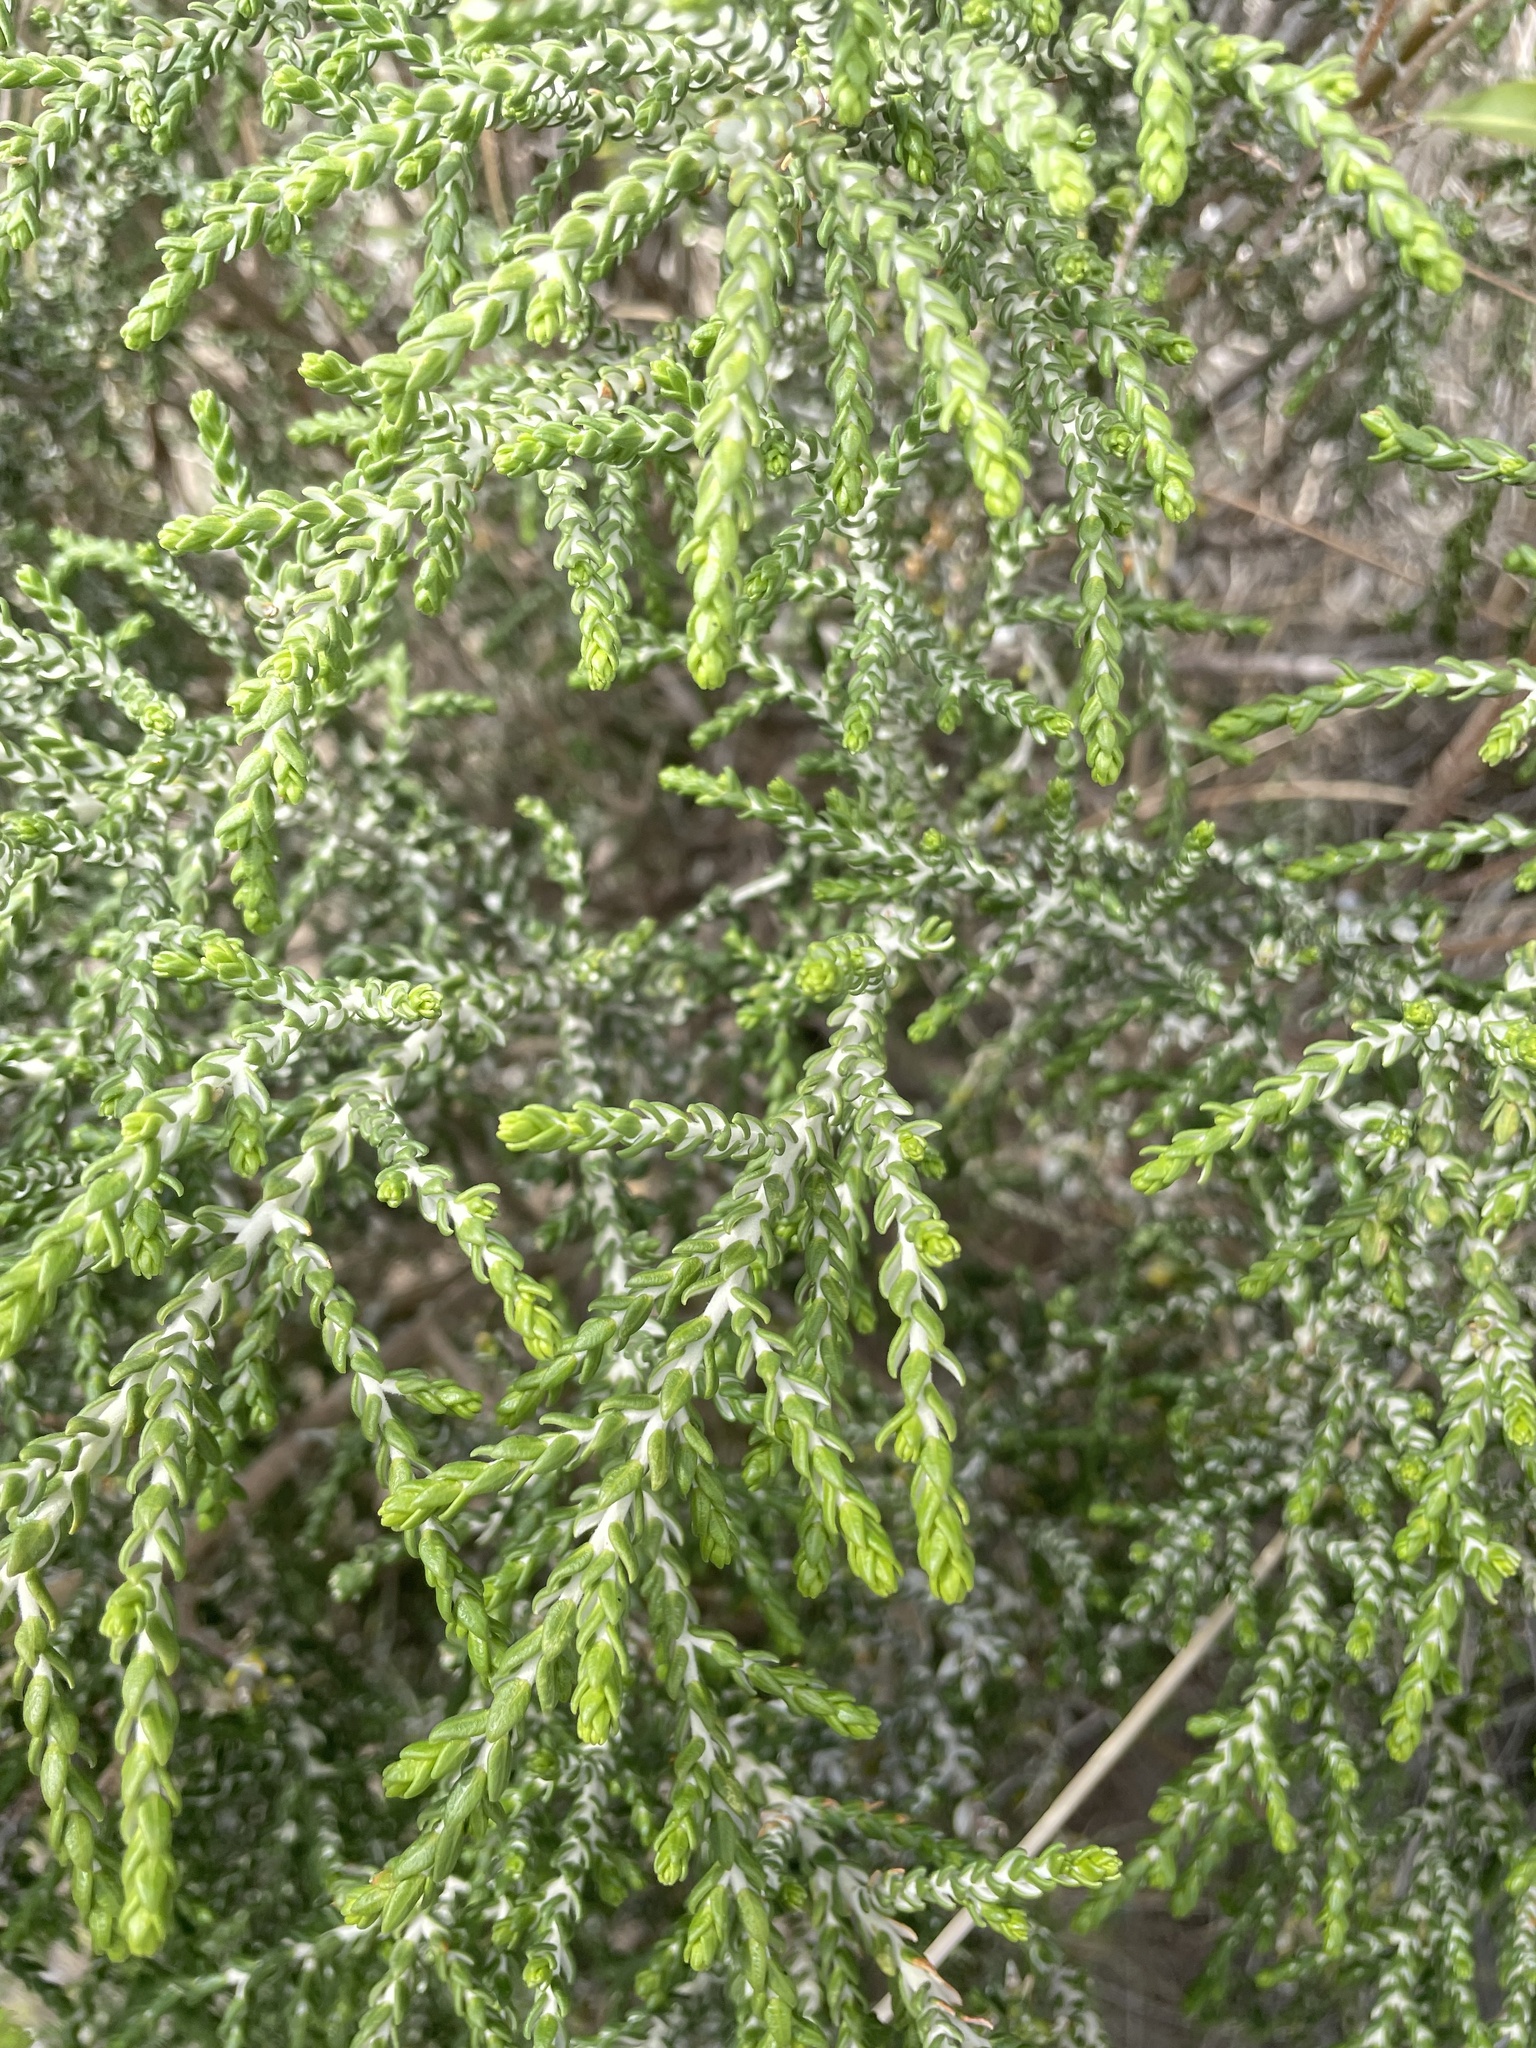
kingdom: Plantae
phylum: Tracheophyta
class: Magnoliopsida
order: Malvales
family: Thymelaeaceae
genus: Thymelaea
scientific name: Thymelaea hirsuta
